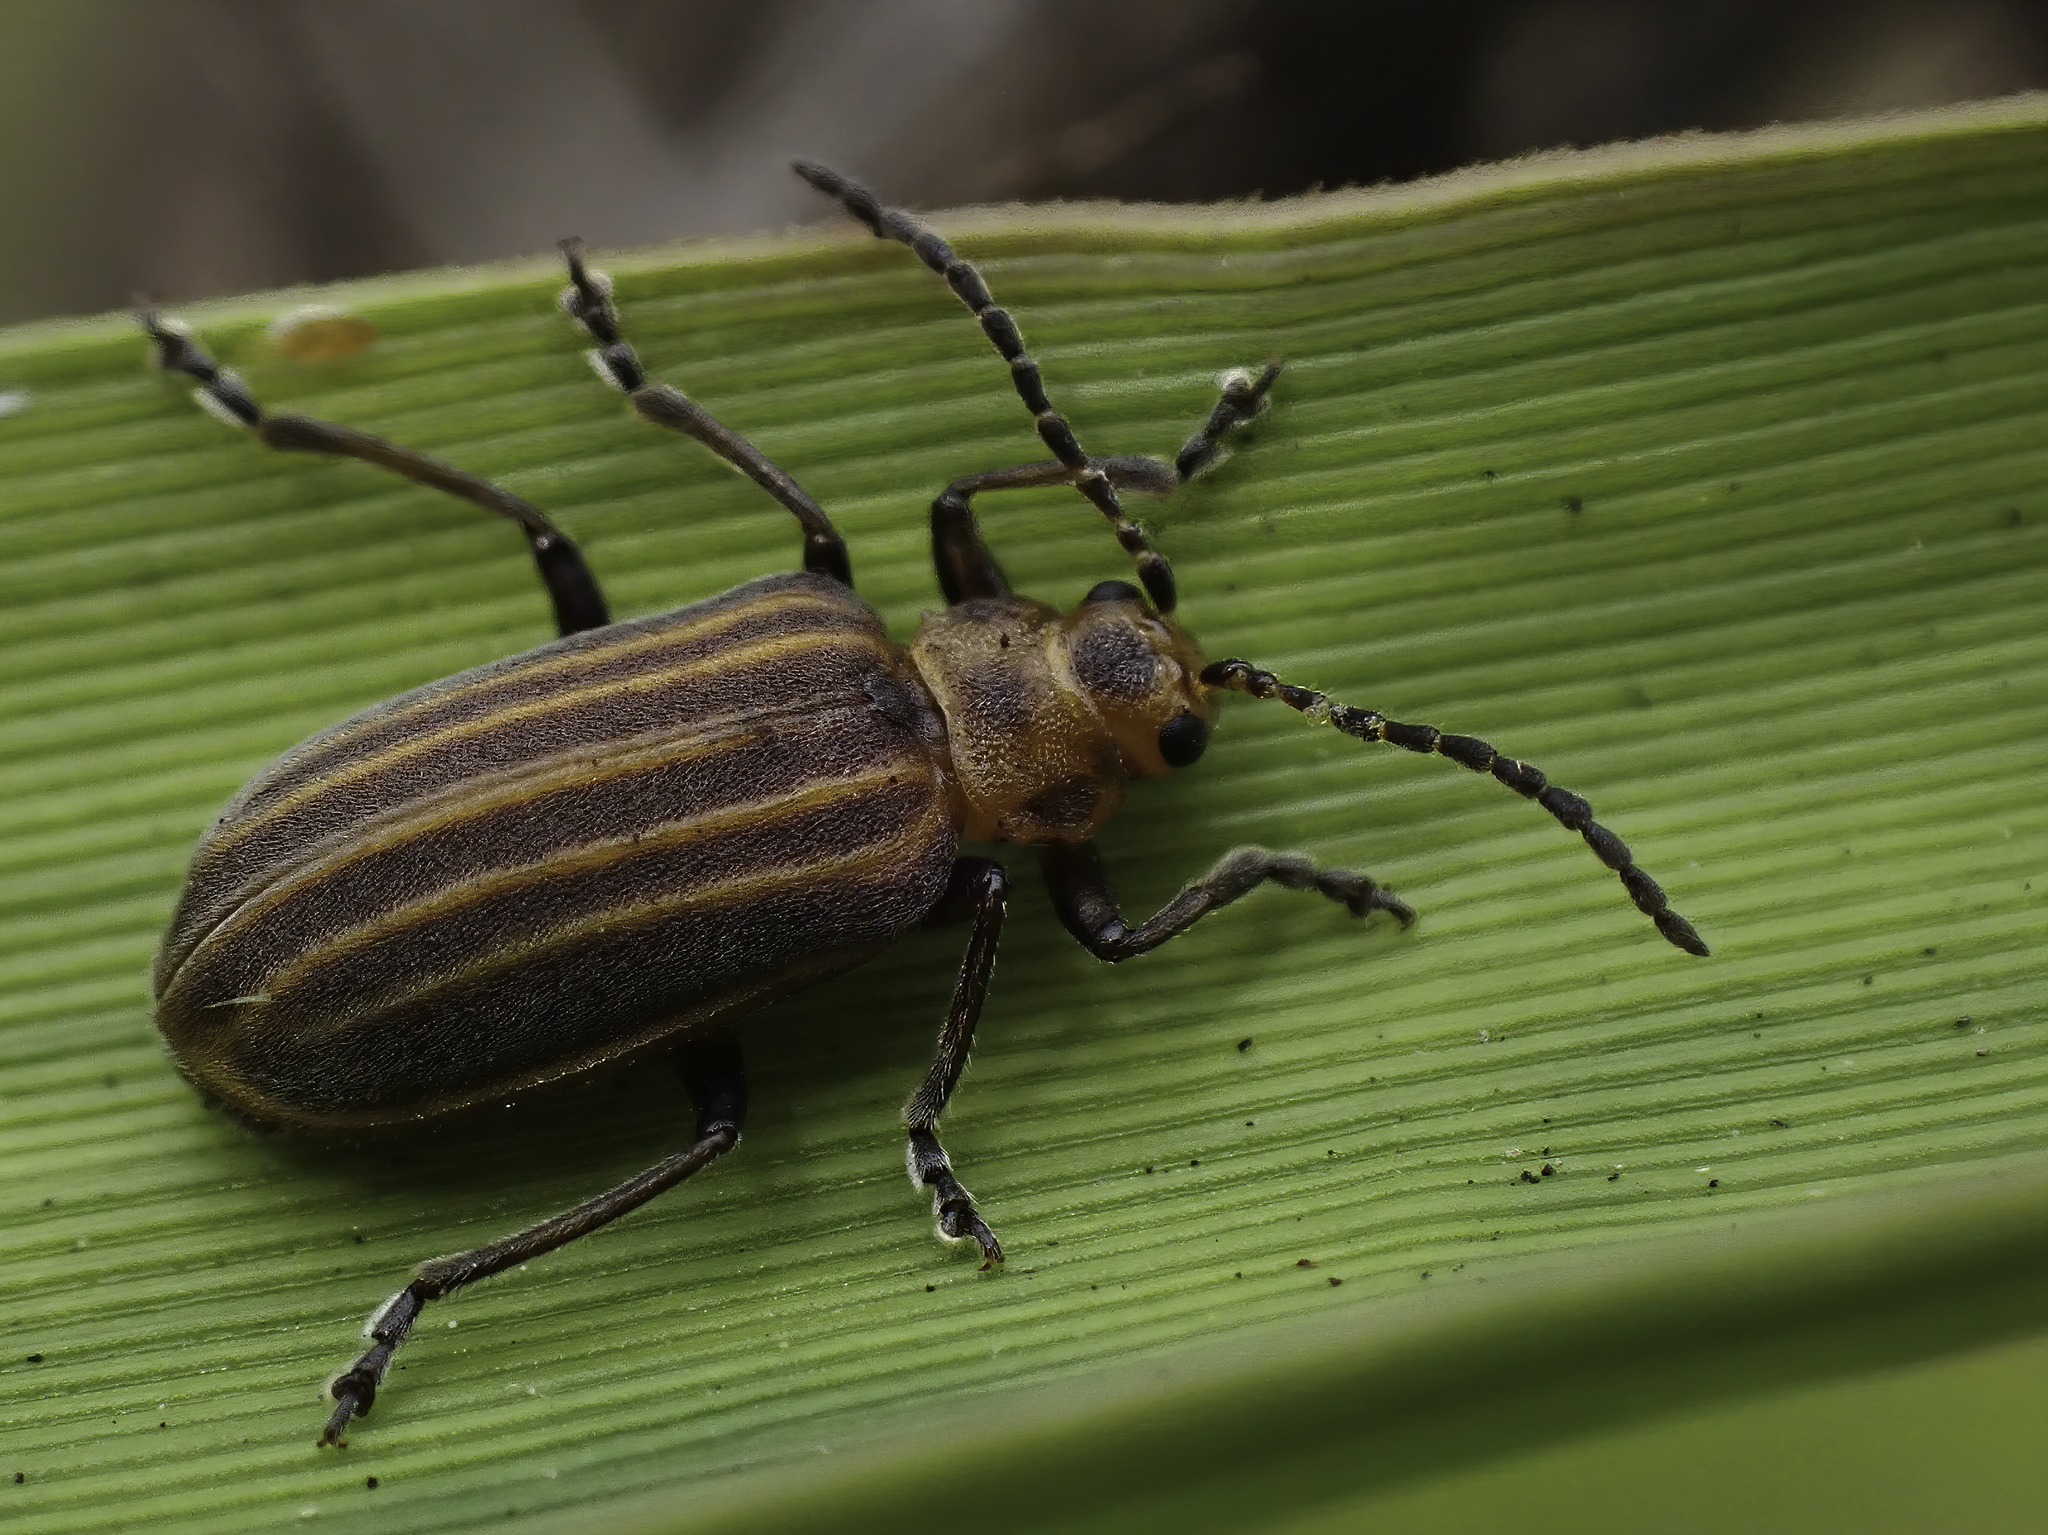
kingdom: Animalia
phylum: Arthropoda
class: Insecta
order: Coleoptera
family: Chrysomelidae
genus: Neolochmaea
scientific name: Neolochmaea dilatipennis
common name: Skeletonizing leaf beetle
